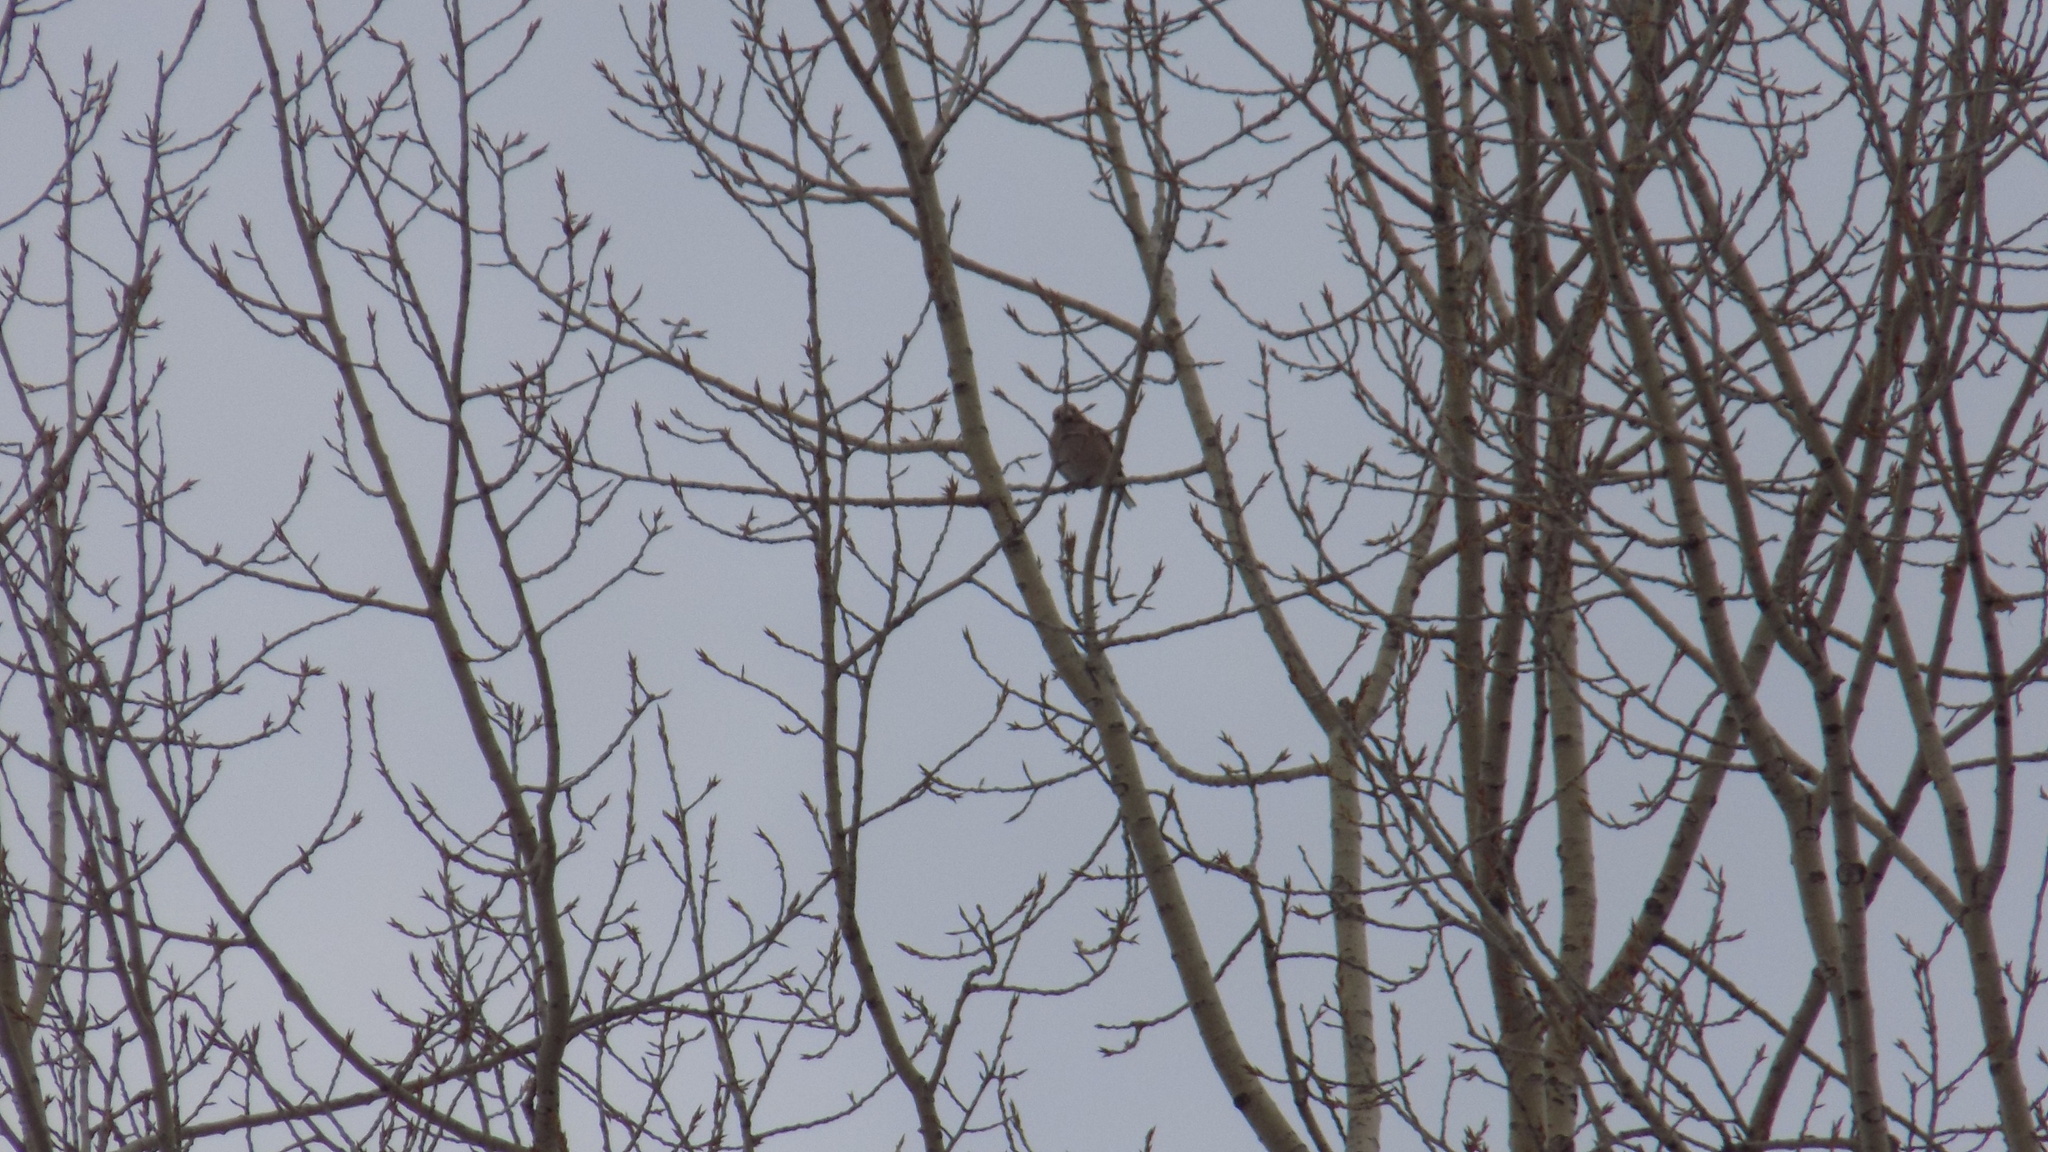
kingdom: Animalia
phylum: Chordata
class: Aves
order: Passeriformes
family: Fringillidae
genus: Coccothraustes
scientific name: Coccothraustes coccothraustes
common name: Hawfinch
